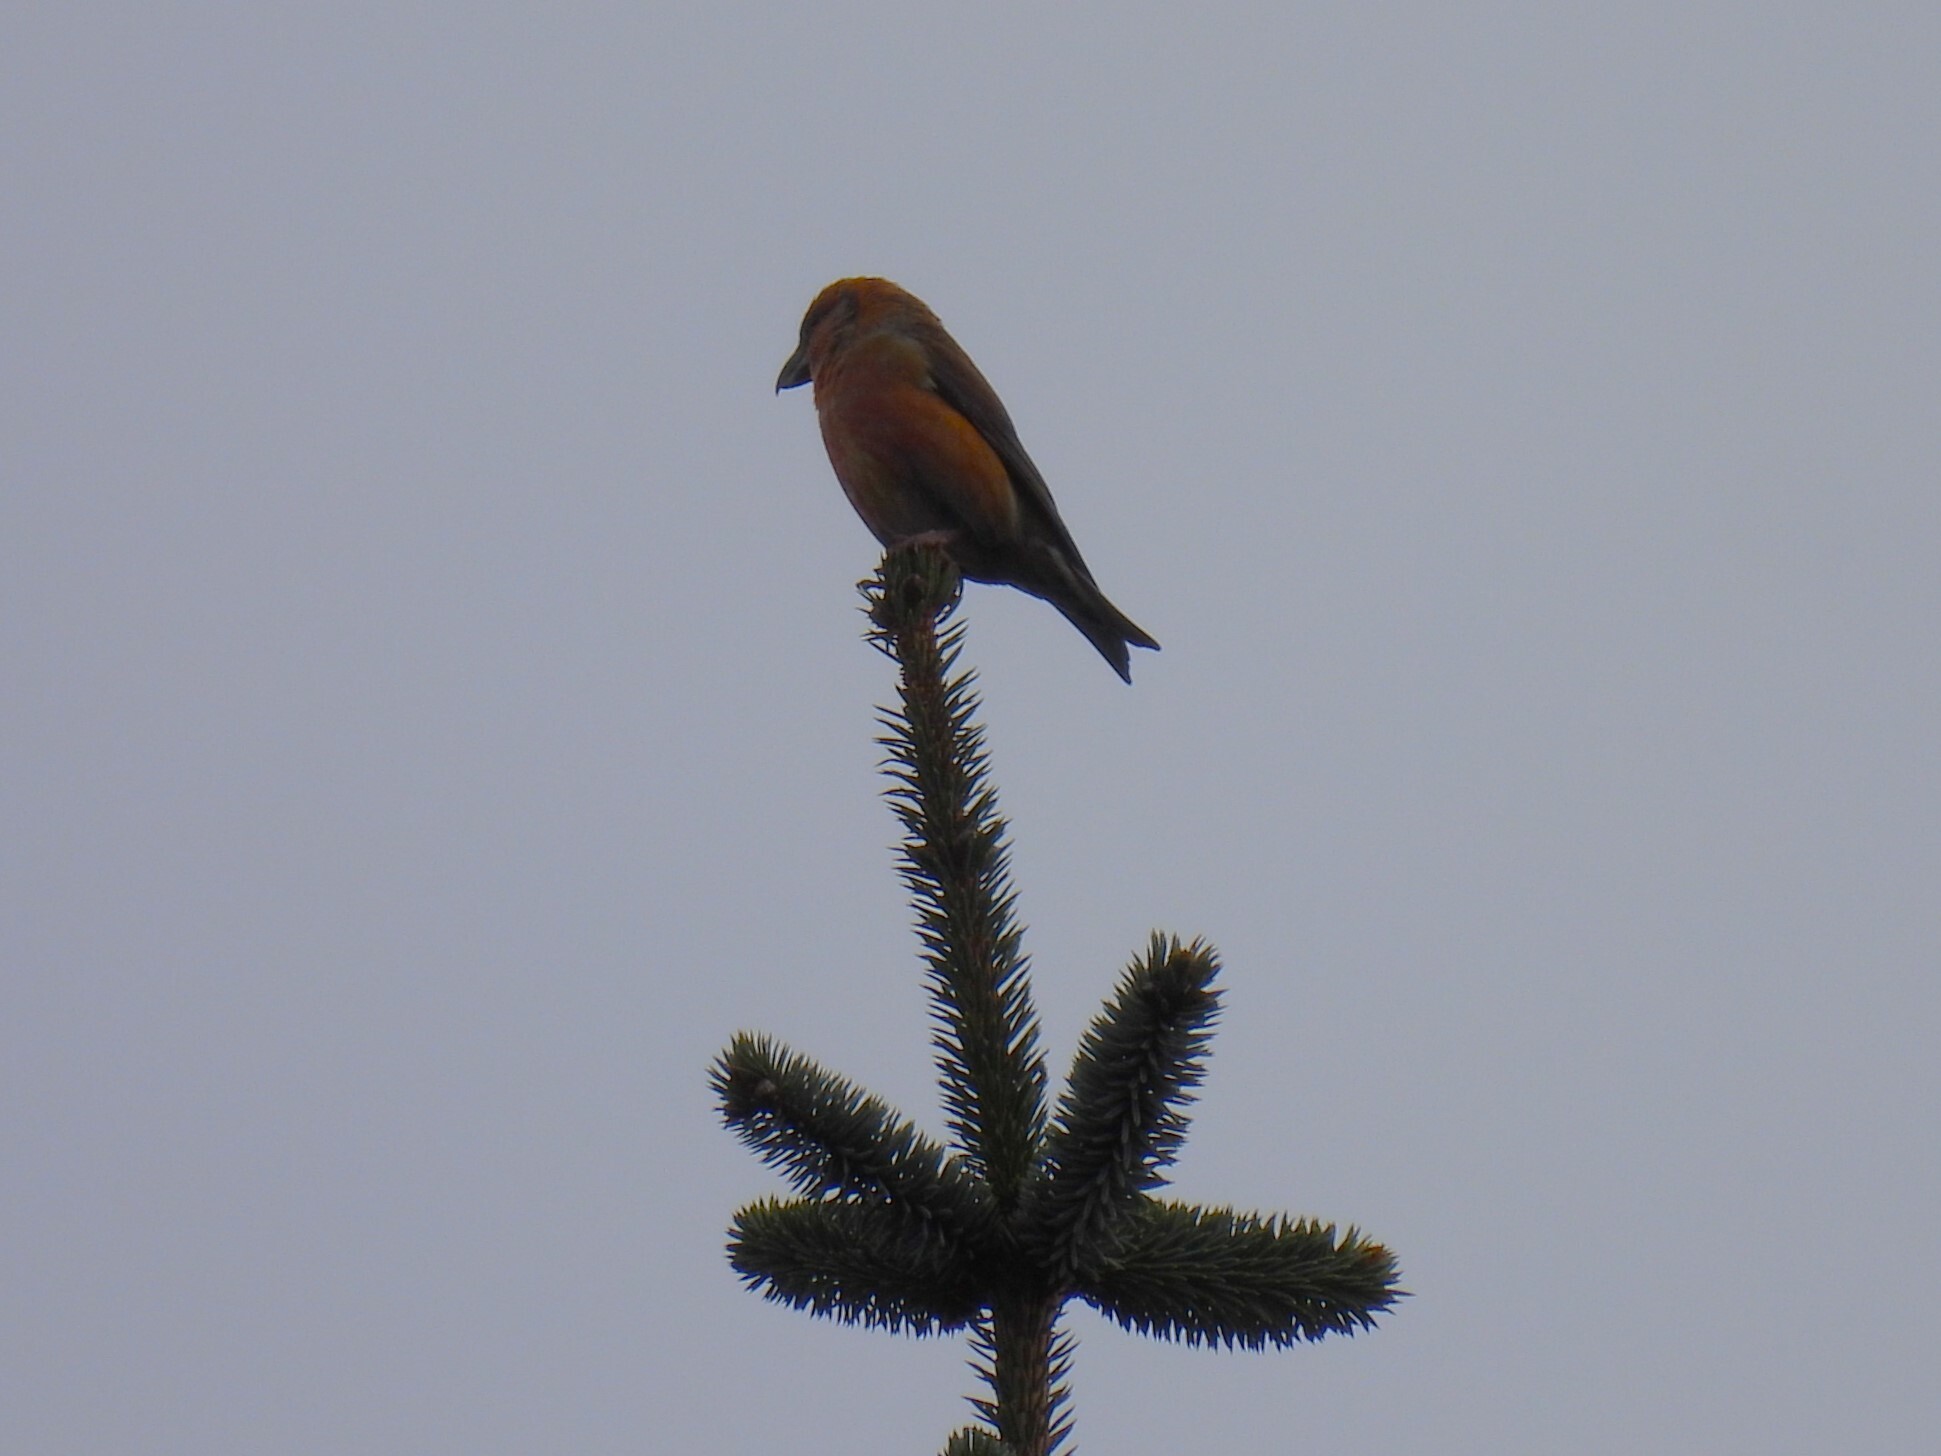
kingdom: Animalia
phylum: Chordata
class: Aves
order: Passeriformes
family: Fringillidae
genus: Loxia
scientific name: Loxia curvirostra
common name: Red crossbill
